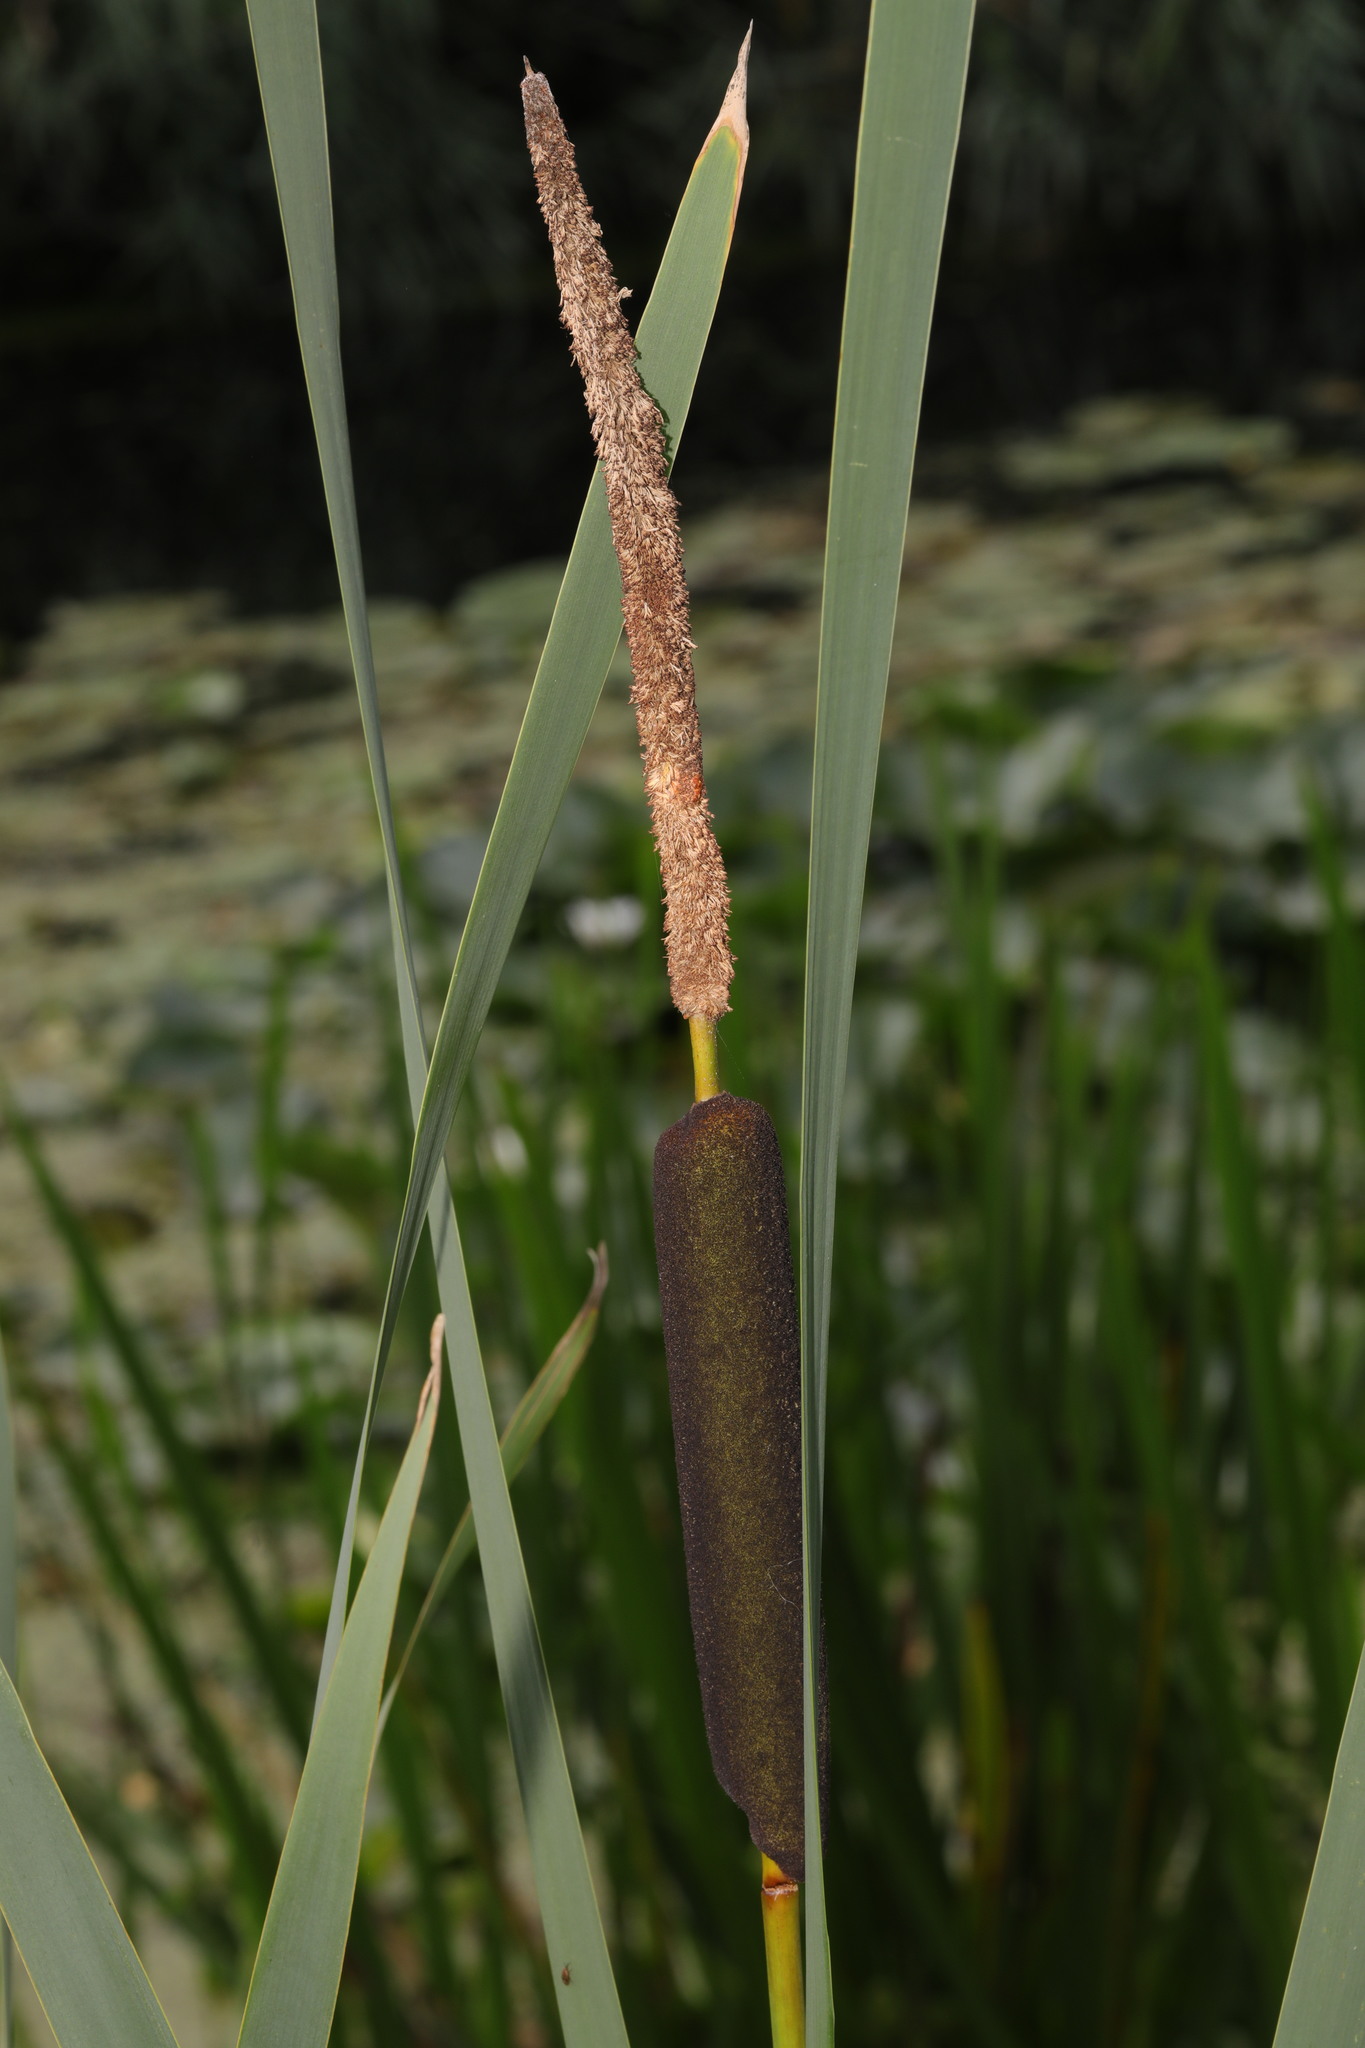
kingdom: Plantae
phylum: Tracheophyta
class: Liliopsida
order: Poales
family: Typhaceae
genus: Typha
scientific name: Typha glauca
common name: Blue cattail
